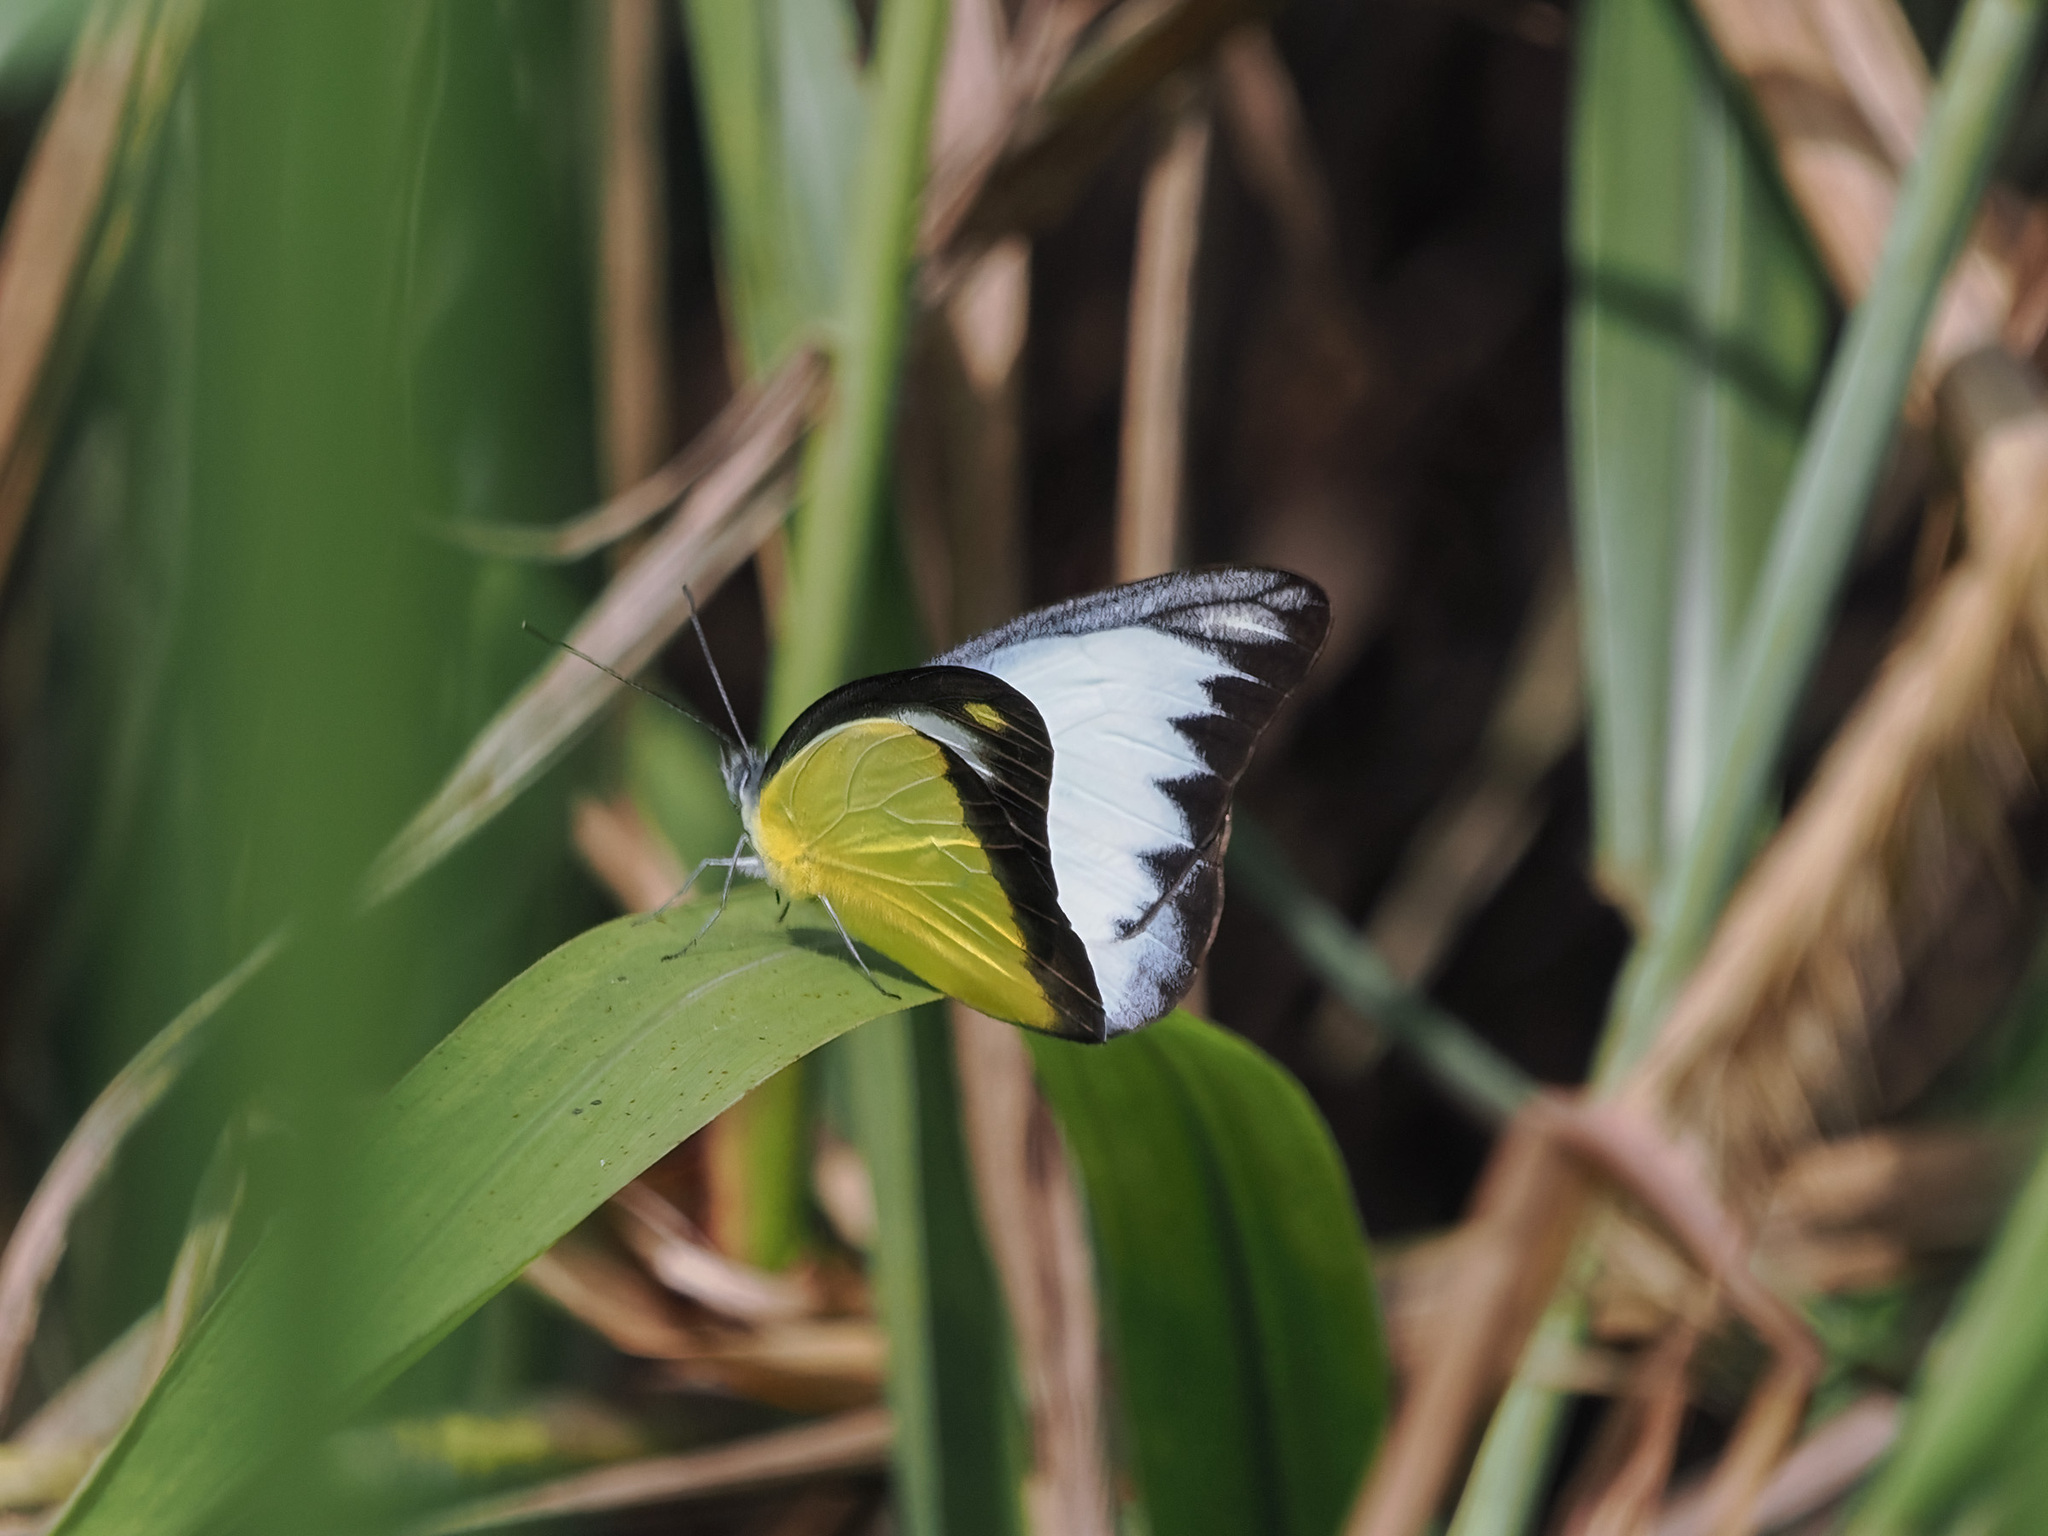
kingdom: Animalia
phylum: Arthropoda
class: Insecta
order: Lepidoptera
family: Pieridae
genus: Appias
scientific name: Appias lyncida
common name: Chocolate albatross
